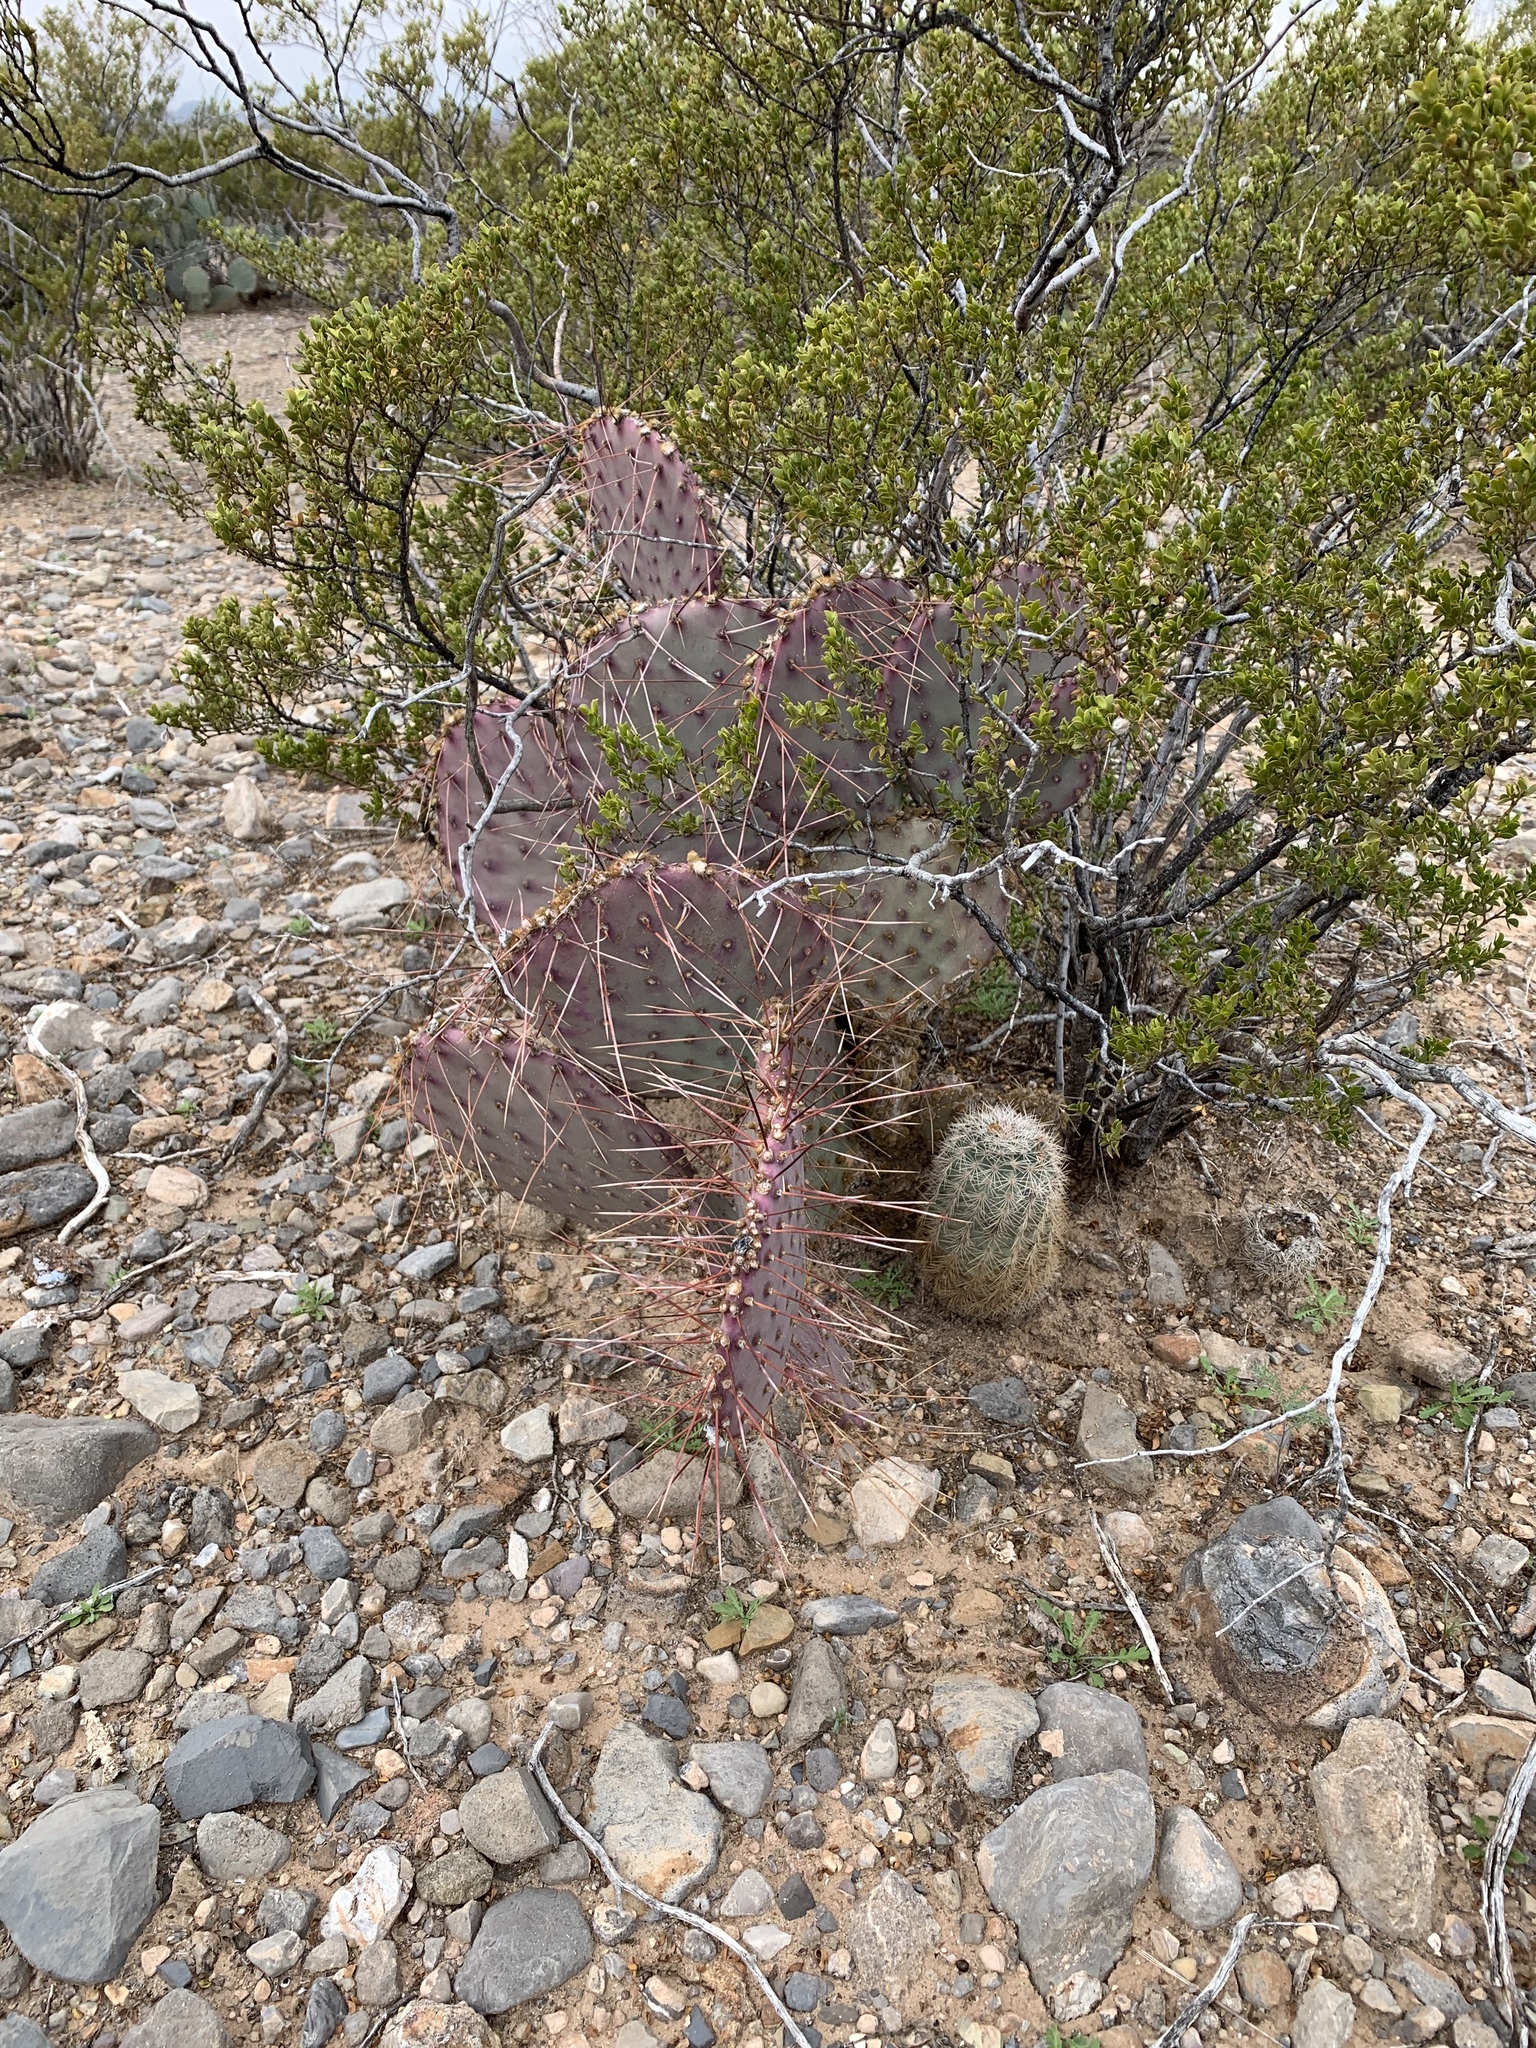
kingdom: Plantae
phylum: Tracheophyta
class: Magnoliopsida
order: Caryophyllales
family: Cactaceae
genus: Echinocereus
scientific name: Echinocereus dasyacanthus
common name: Spiny hedgehog cactus
